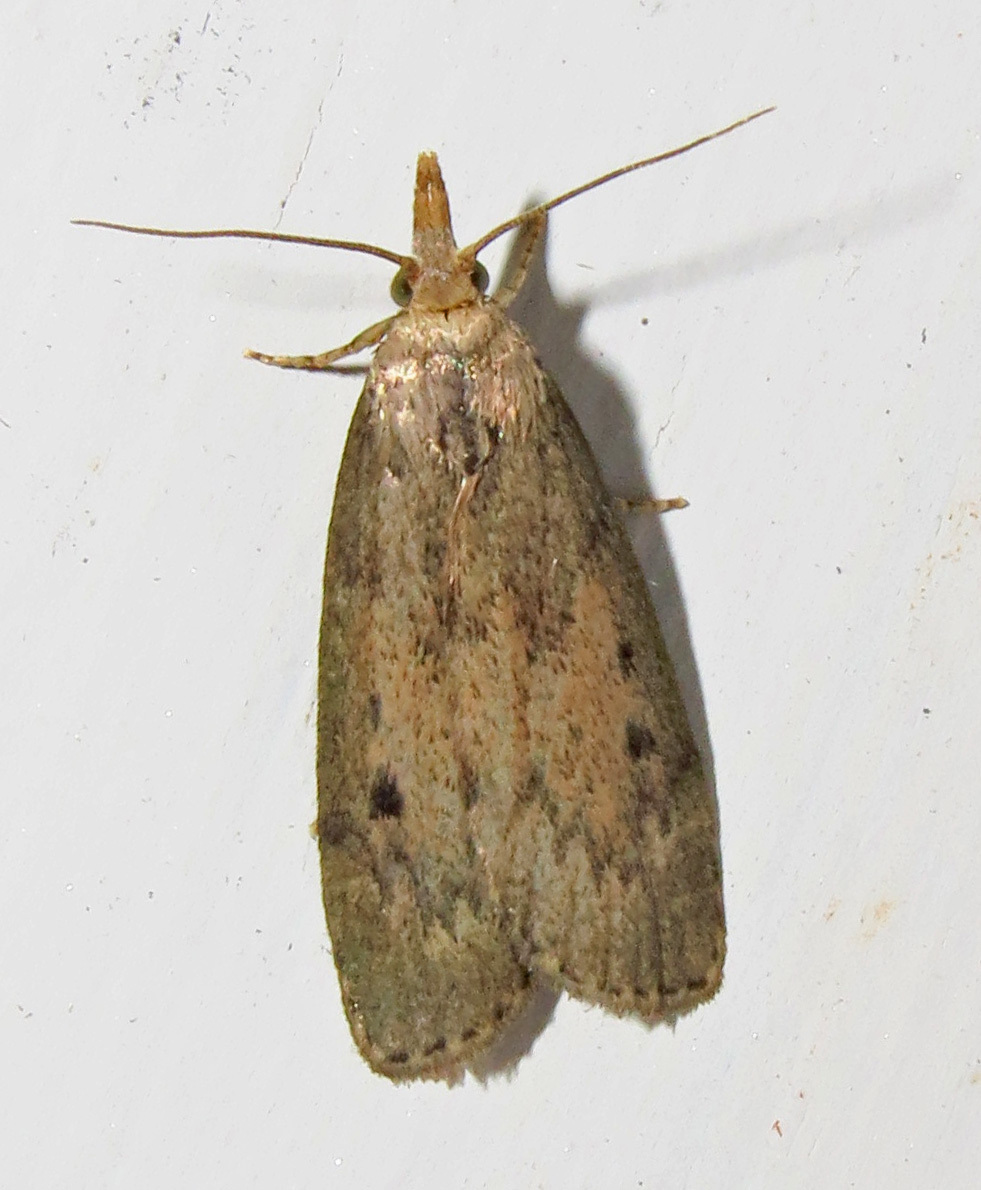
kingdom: Animalia
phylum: Arthropoda
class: Insecta
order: Lepidoptera
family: Pyralidae
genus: Aphomia
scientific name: Aphomia sociella
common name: Bee moth
